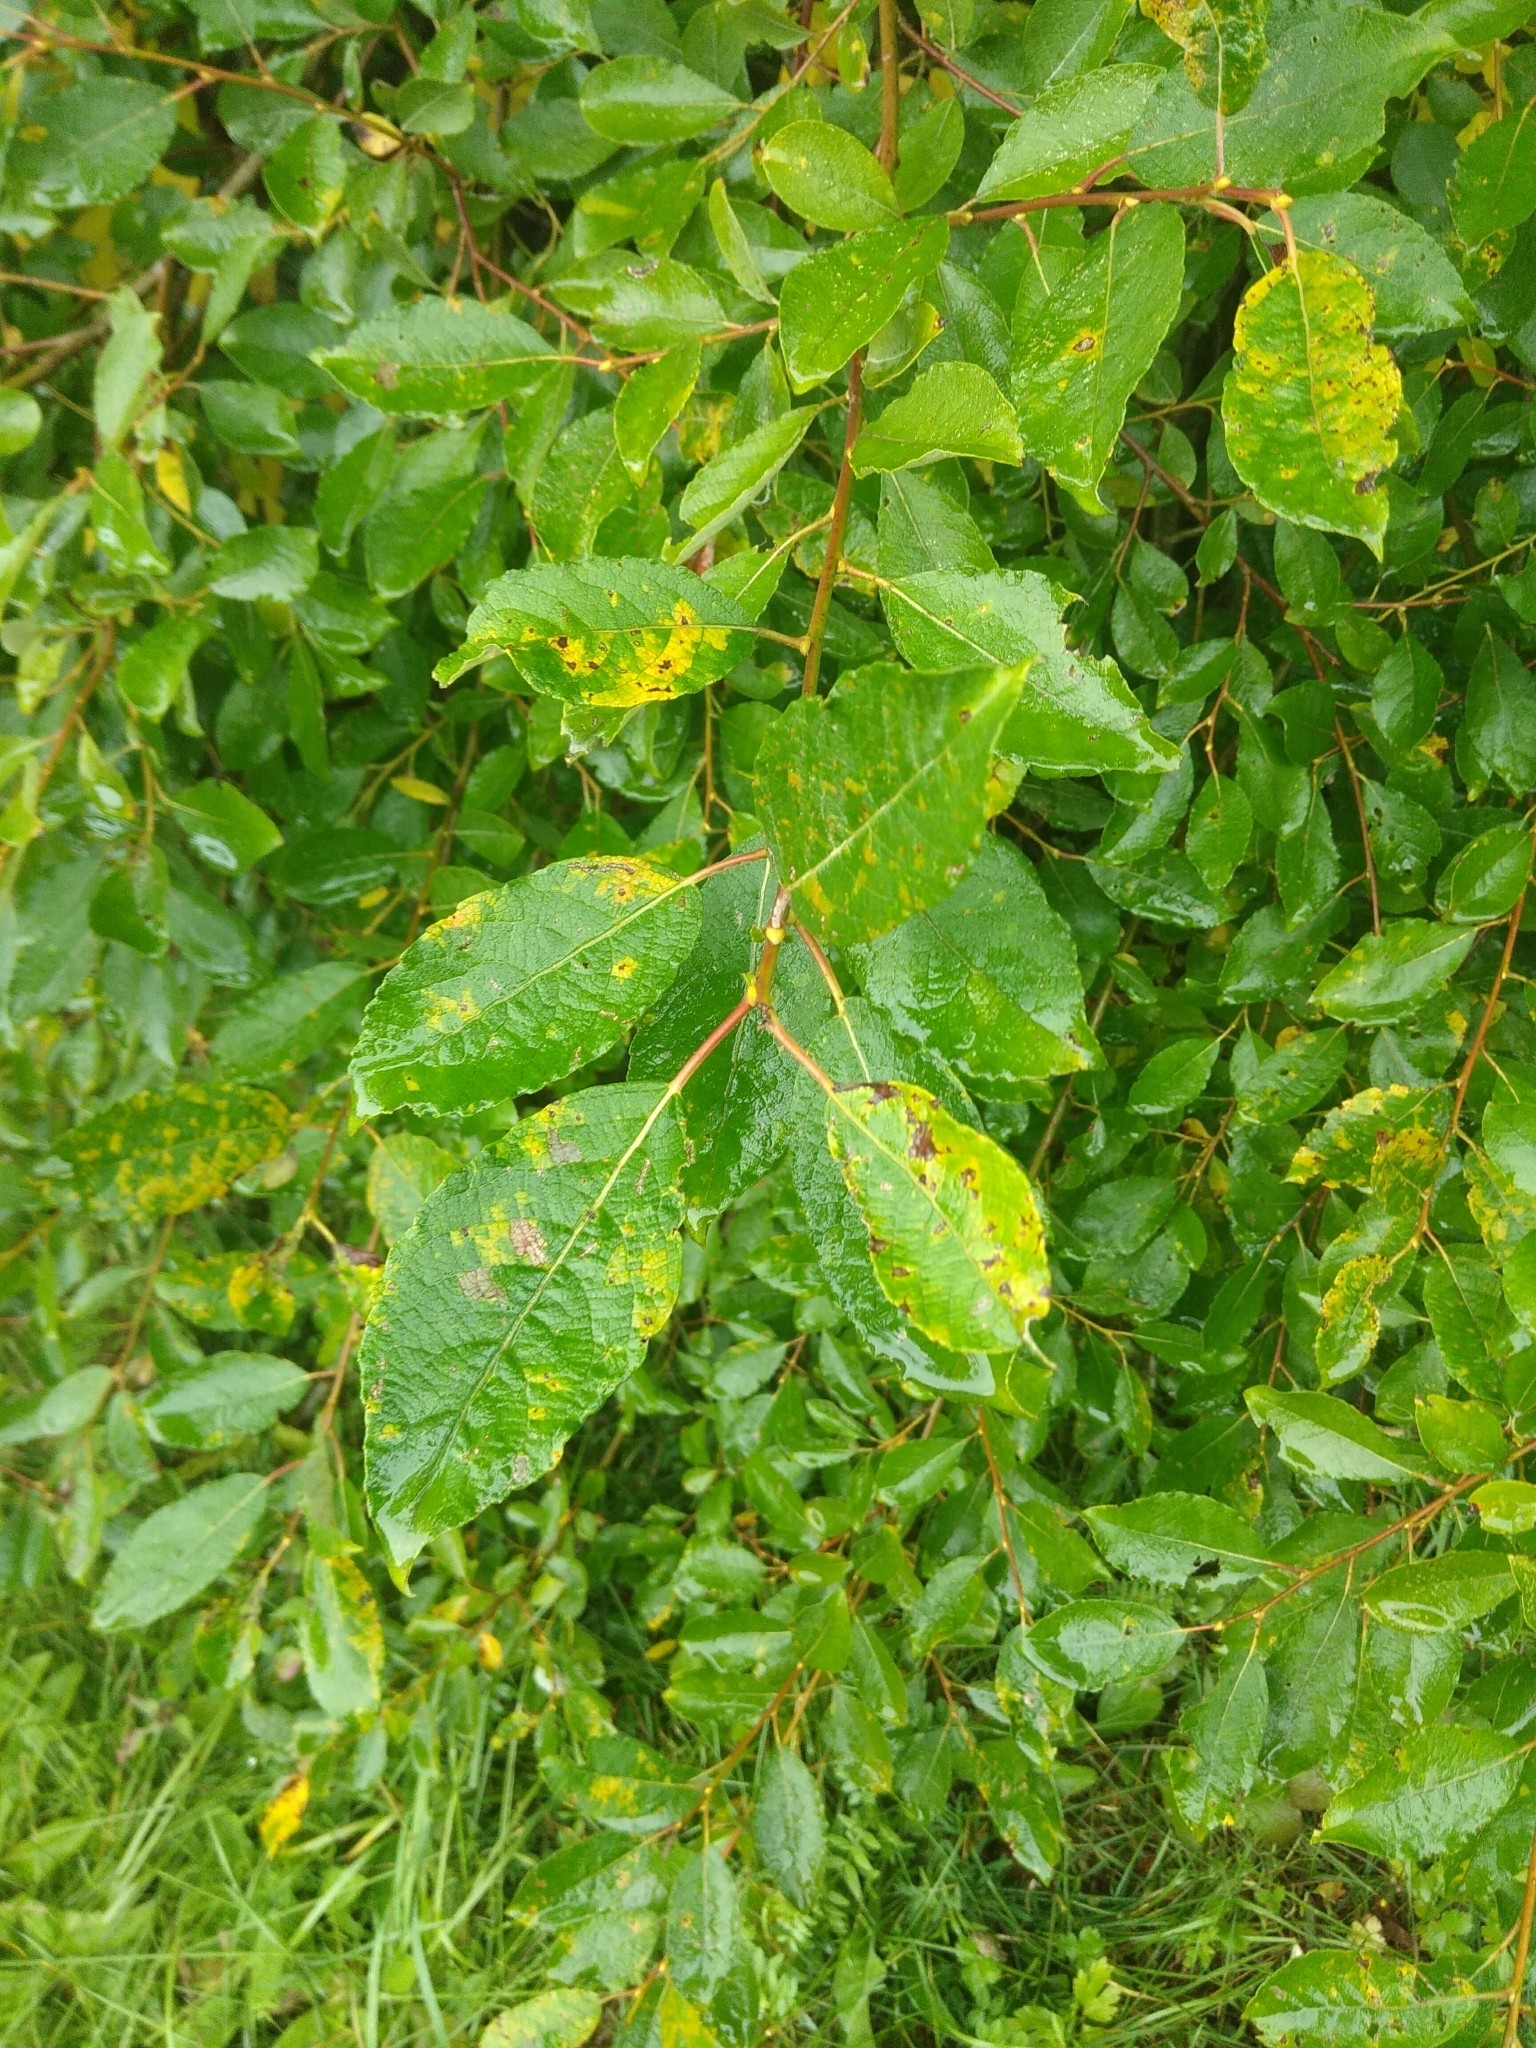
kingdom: Plantae
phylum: Tracheophyta
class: Magnoliopsida
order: Malpighiales
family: Salicaceae
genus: Salix
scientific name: Salix caprea
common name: Goat willow
